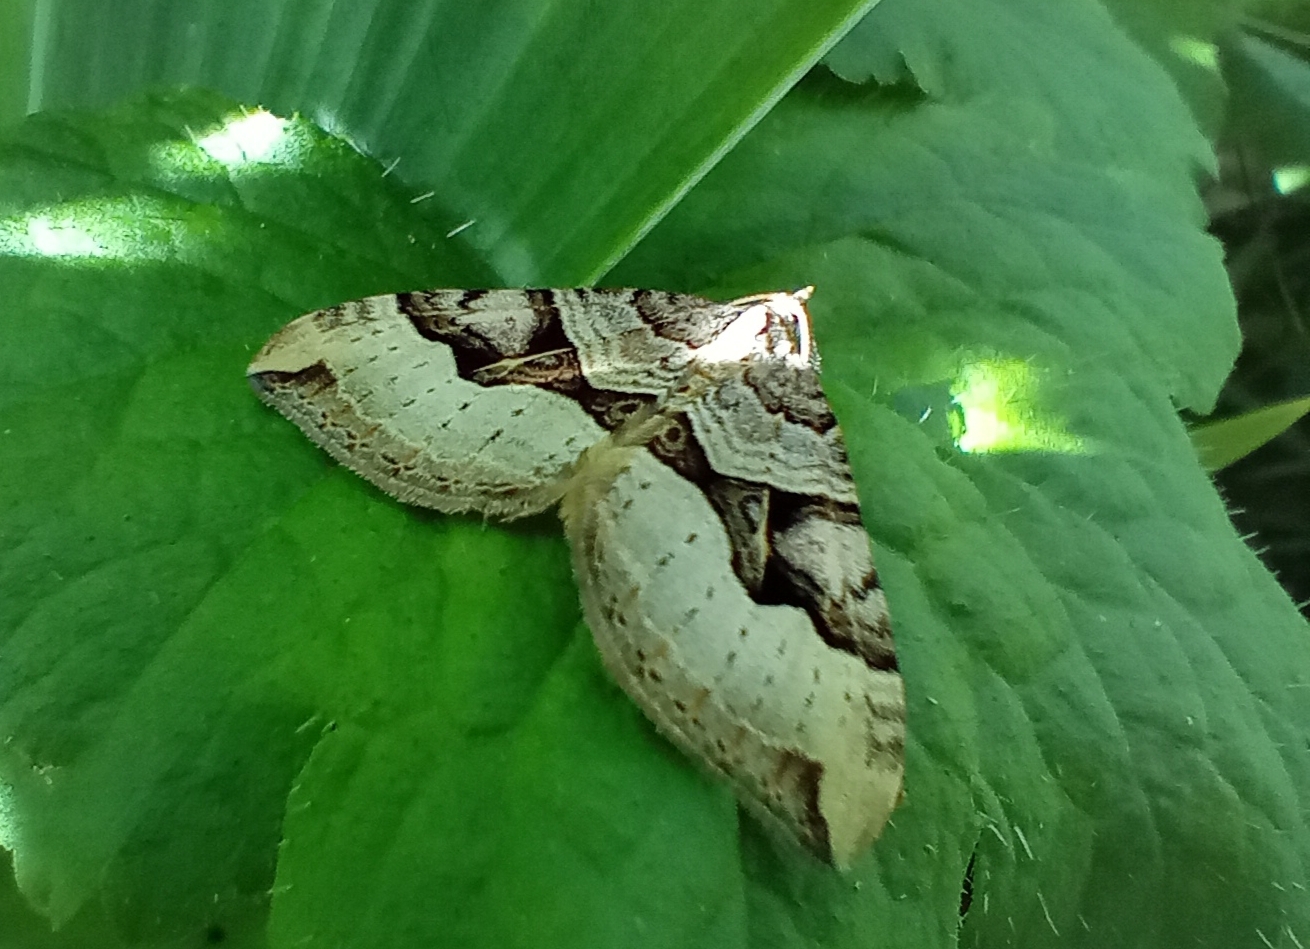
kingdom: Animalia
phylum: Arthropoda
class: Insecta
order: Lepidoptera
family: Geometridae
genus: Xanthorhoe
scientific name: Xanthorhoe semifissata
